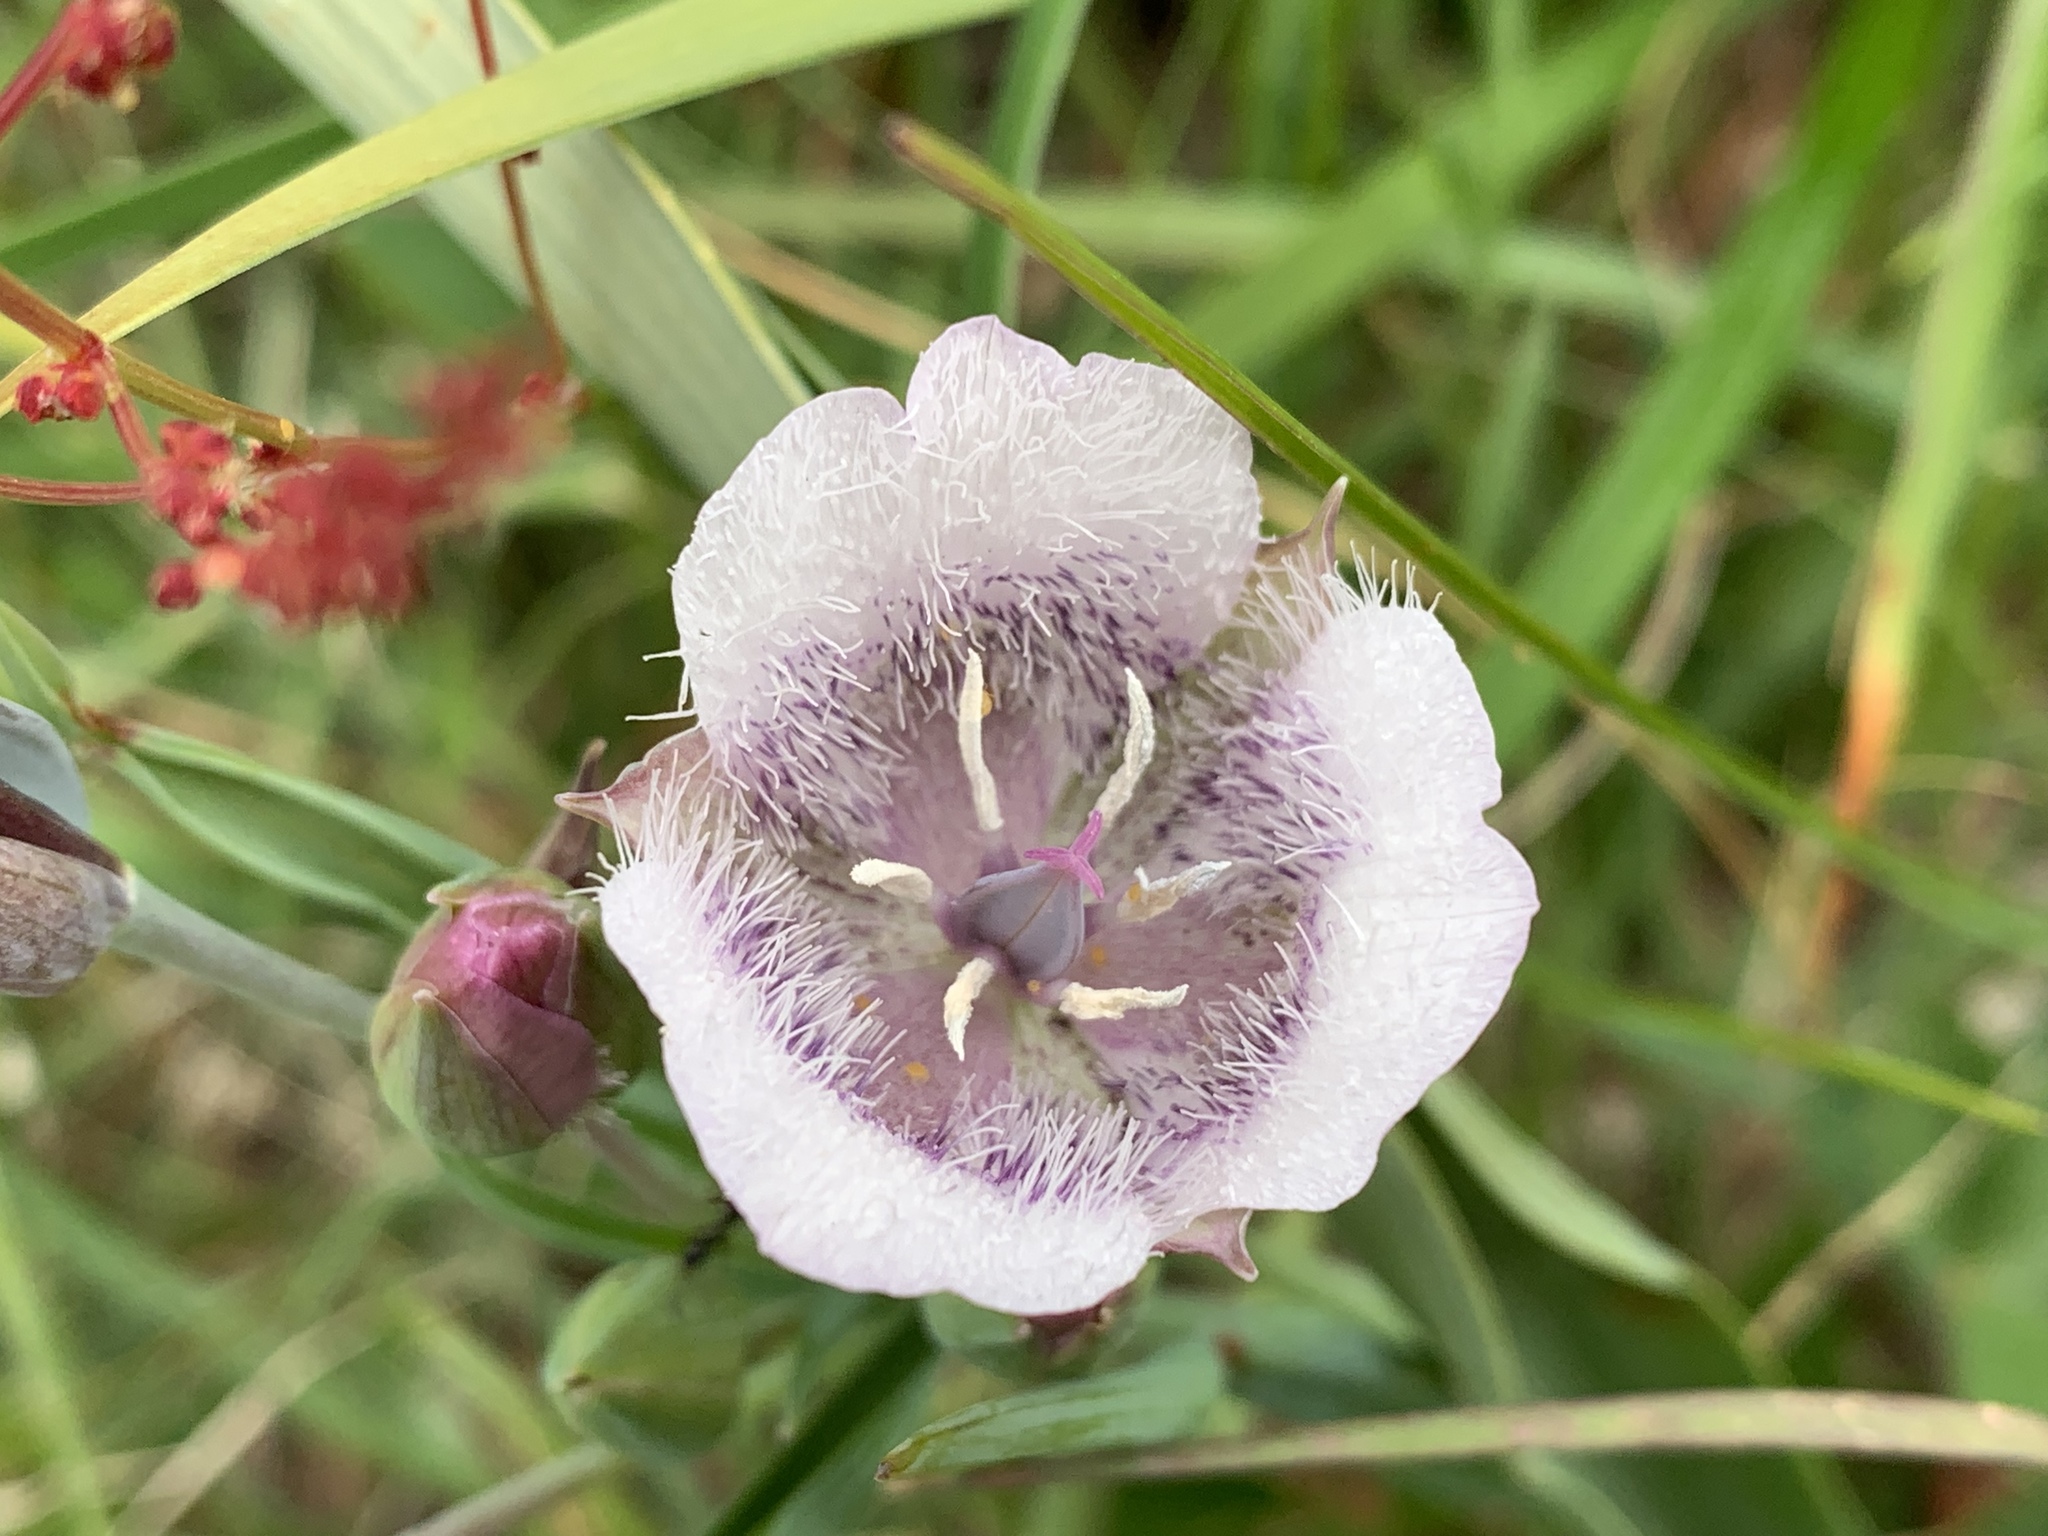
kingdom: Plantae
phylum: Tracheophyta
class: Liliopsida
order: Liliales
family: Liliaceae
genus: Calochortus
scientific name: Calochortus tolmiei
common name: Pussy-ears
